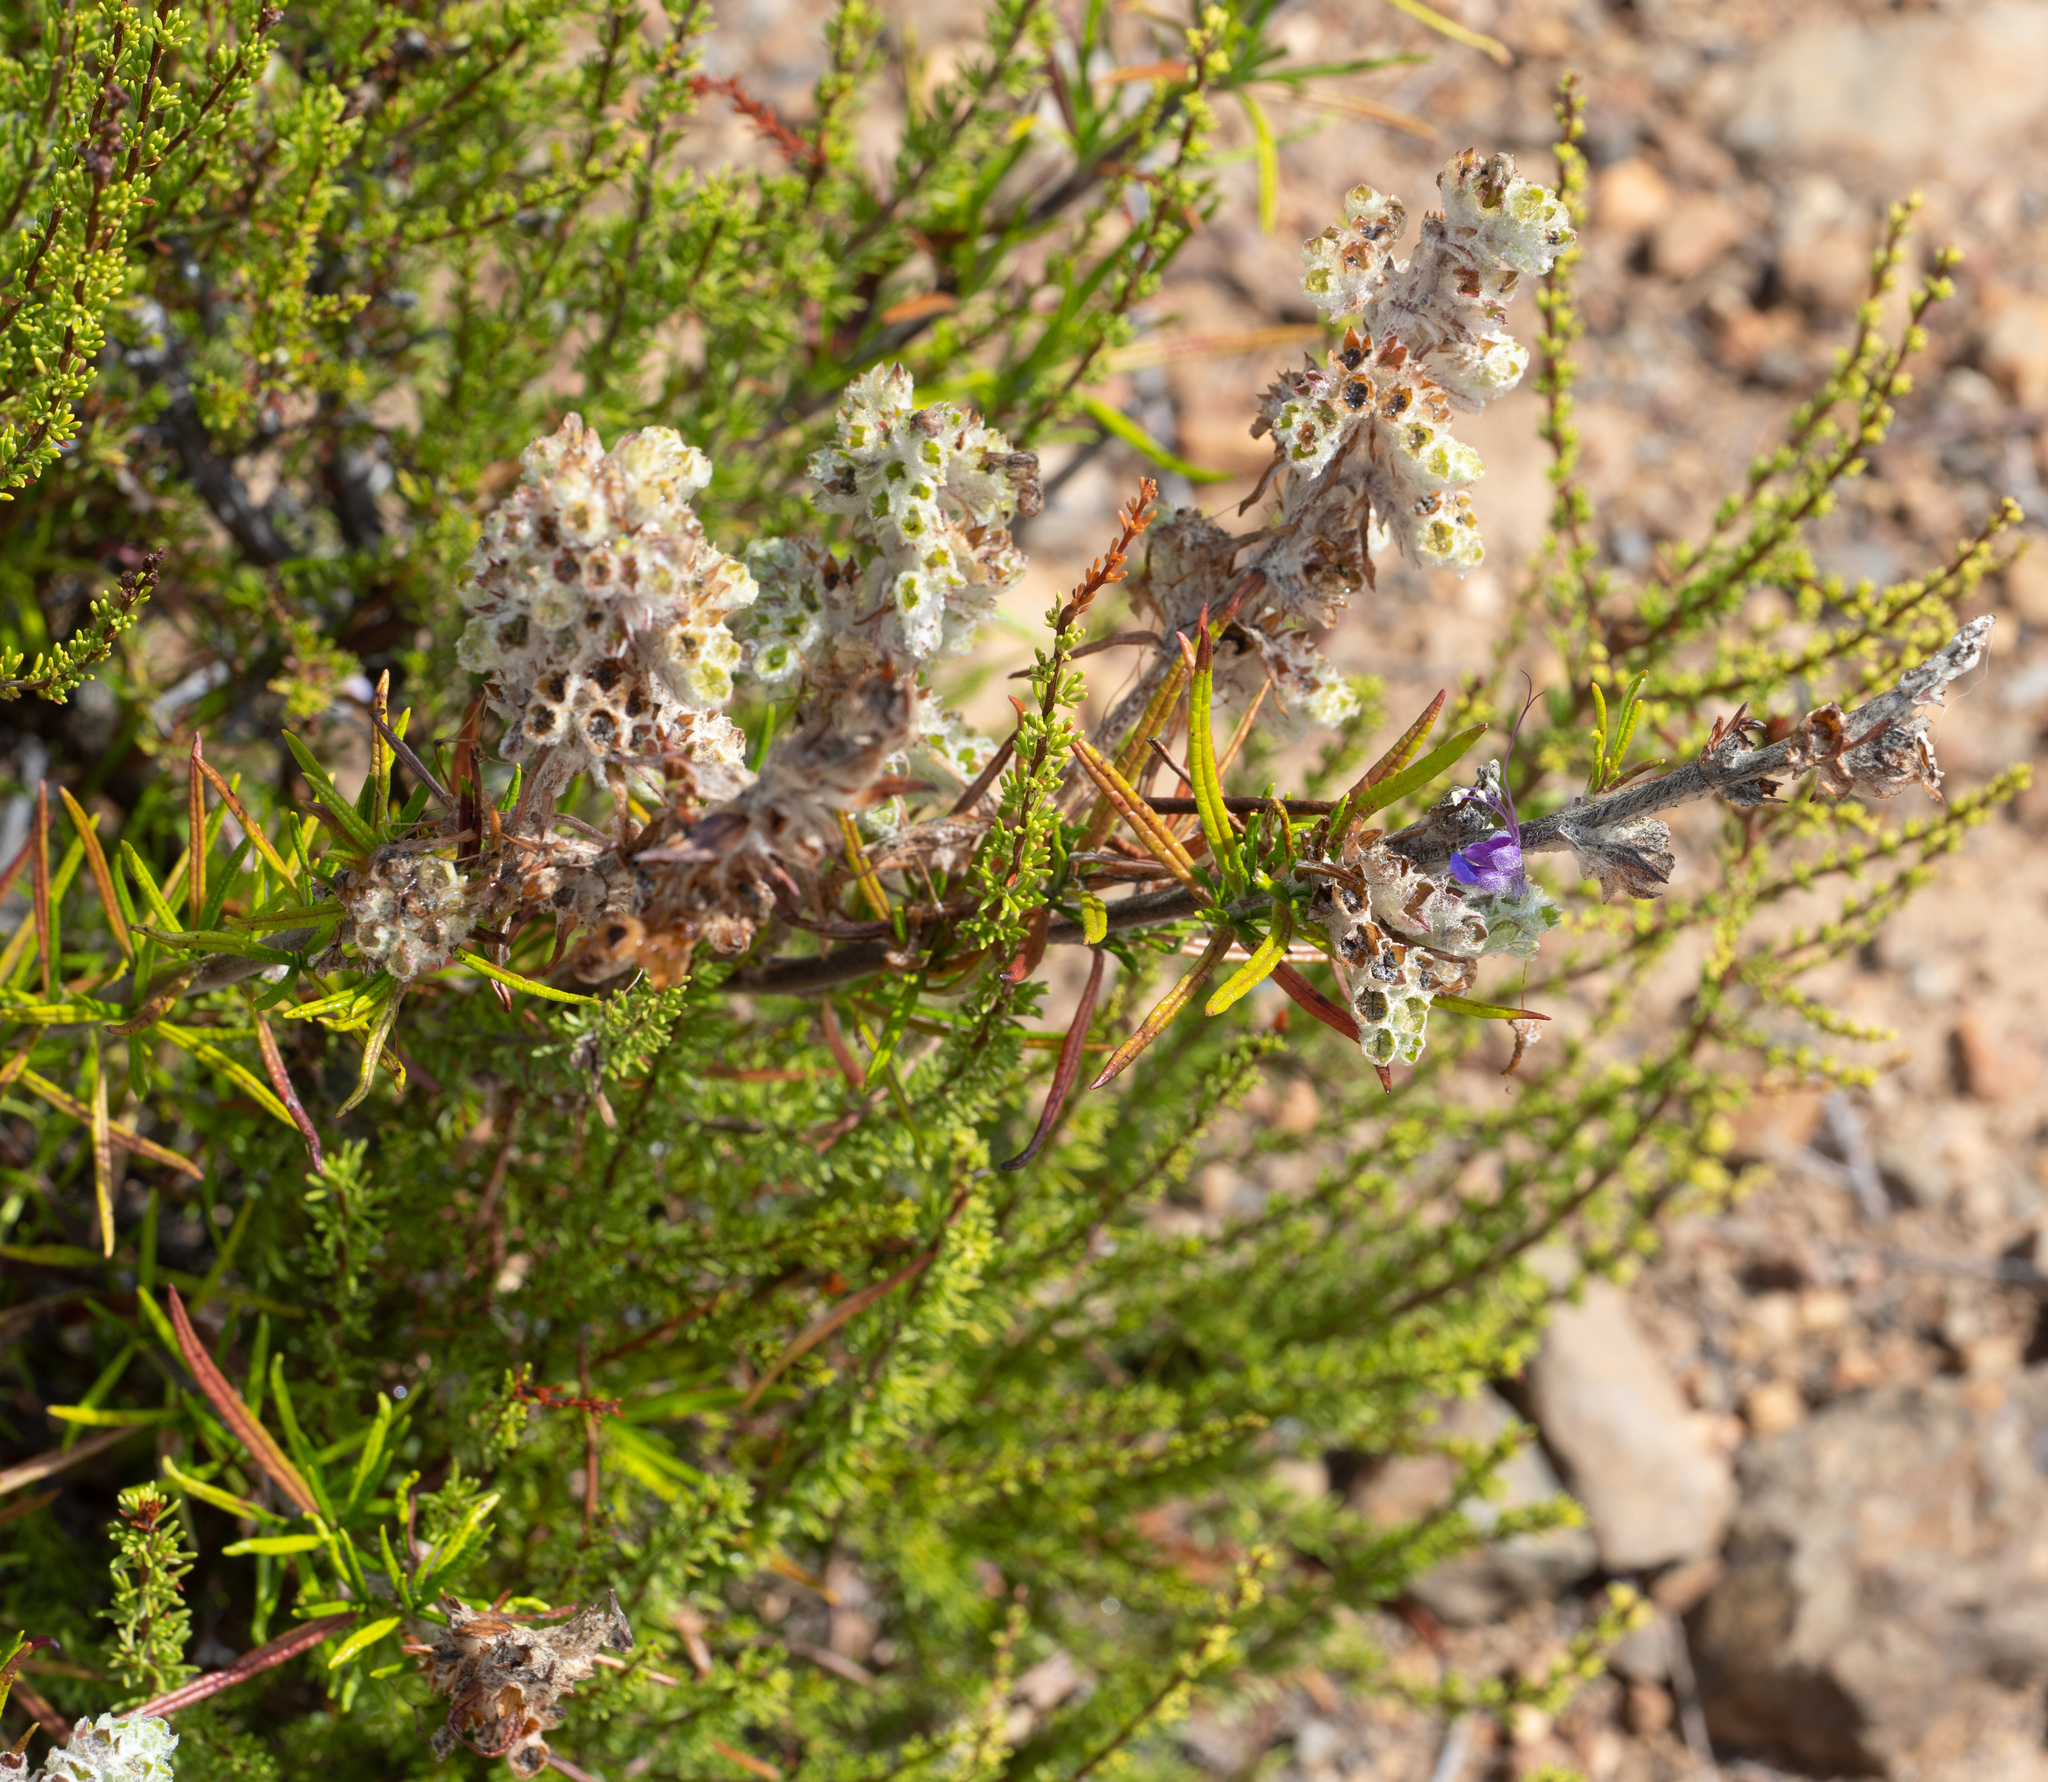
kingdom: Plantae
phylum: Tracheophyta
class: Magnoliopsida
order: Lamiales
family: Lamiaceae
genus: Trichostema
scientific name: Trichostema lanatum
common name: Woolly bluecurls
